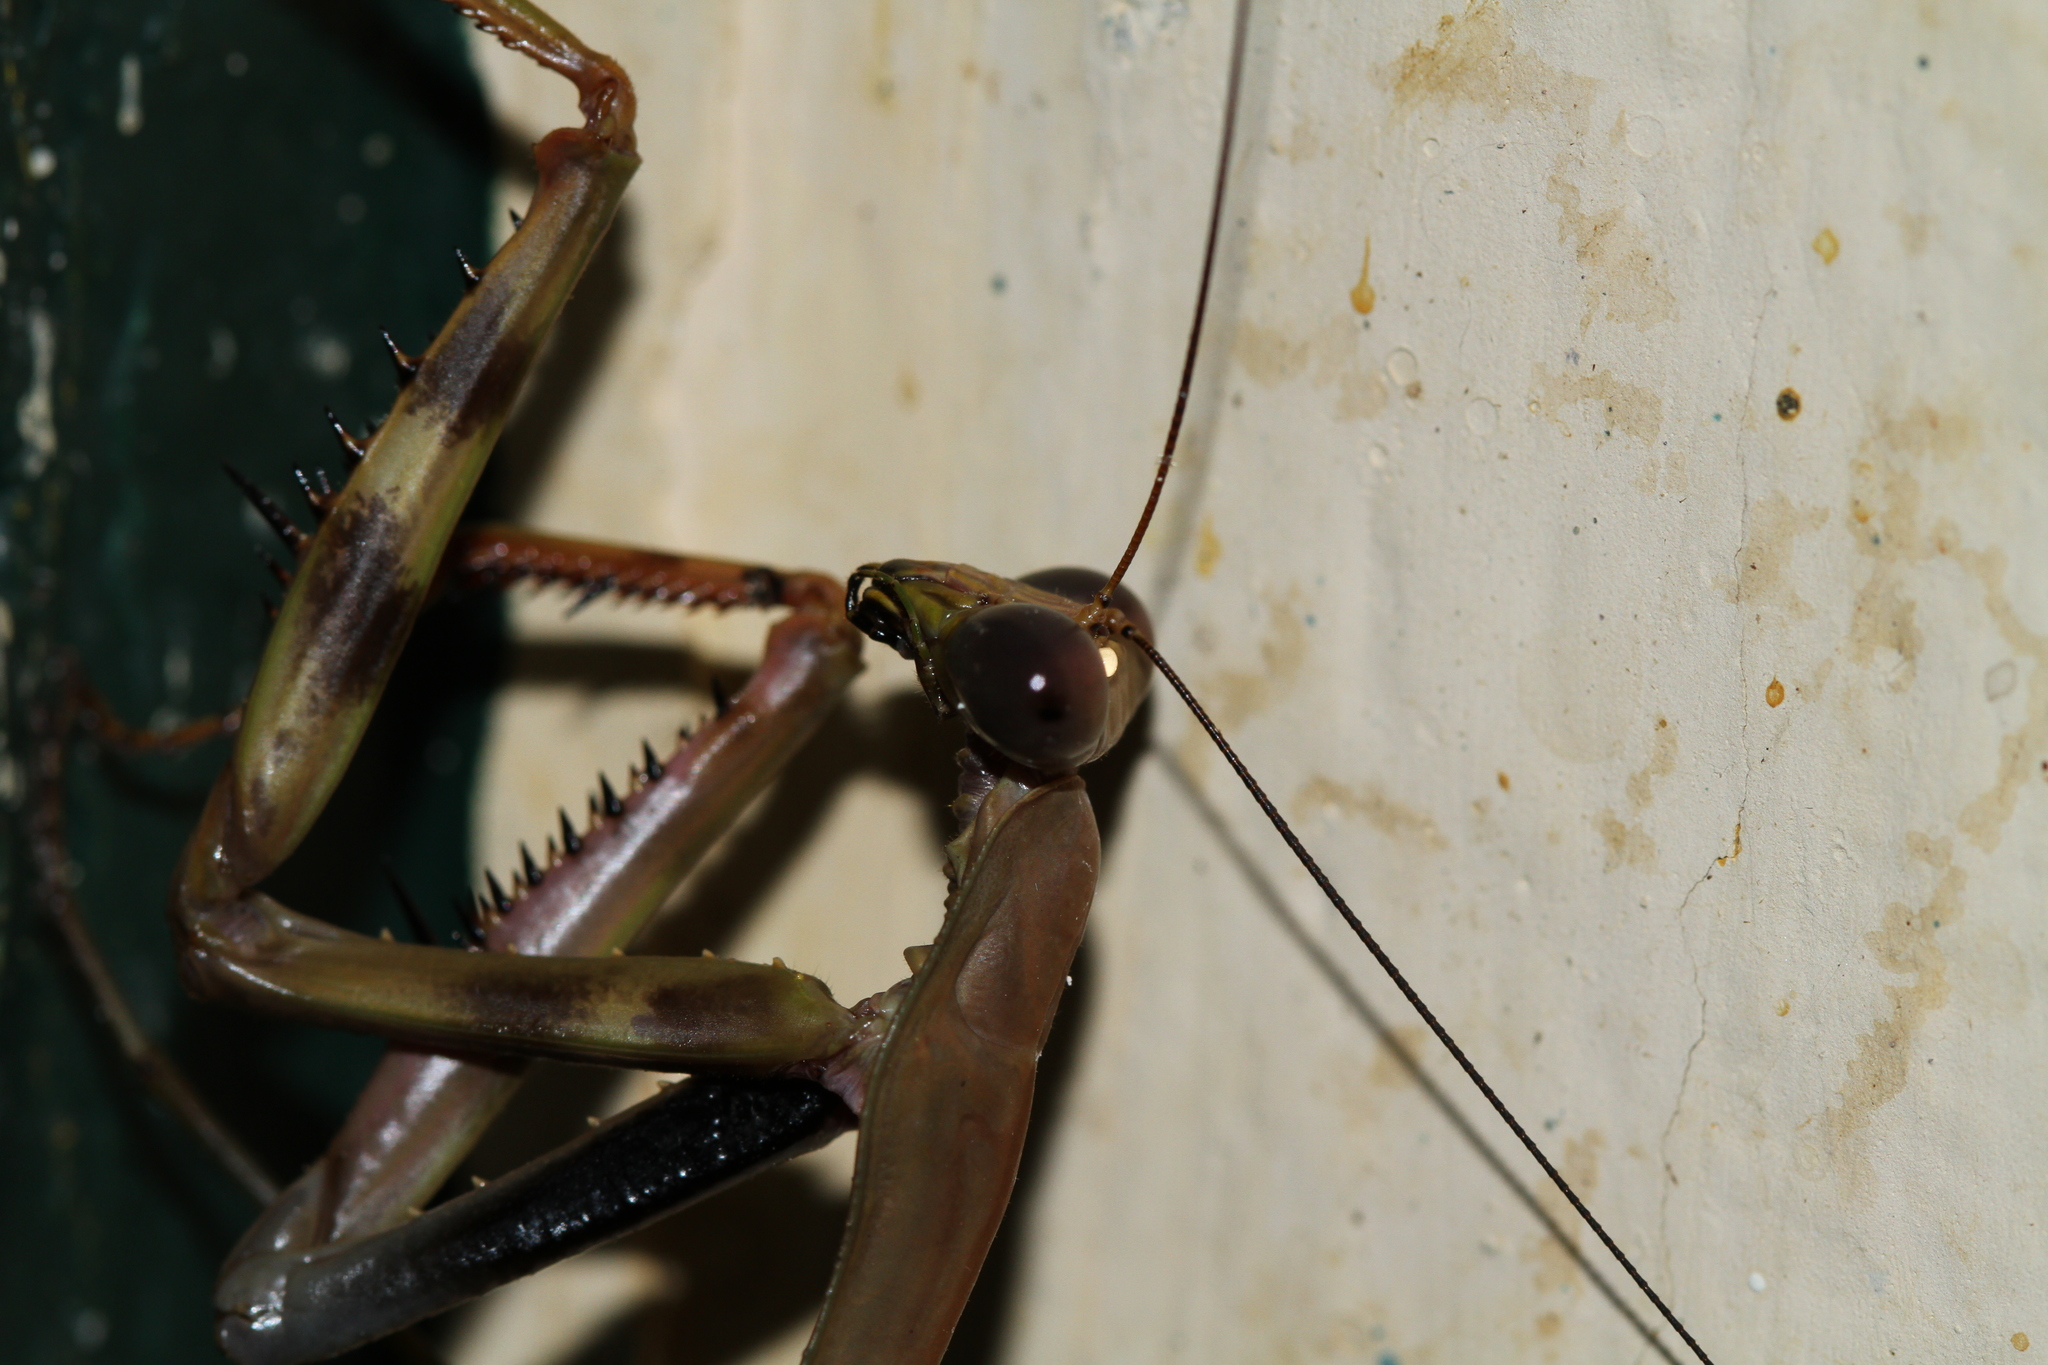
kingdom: Animalia
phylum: Arthropoda
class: Insecta
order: Mantodea
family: Mantidae
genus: Plistospilota
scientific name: Plistospilota maxima
